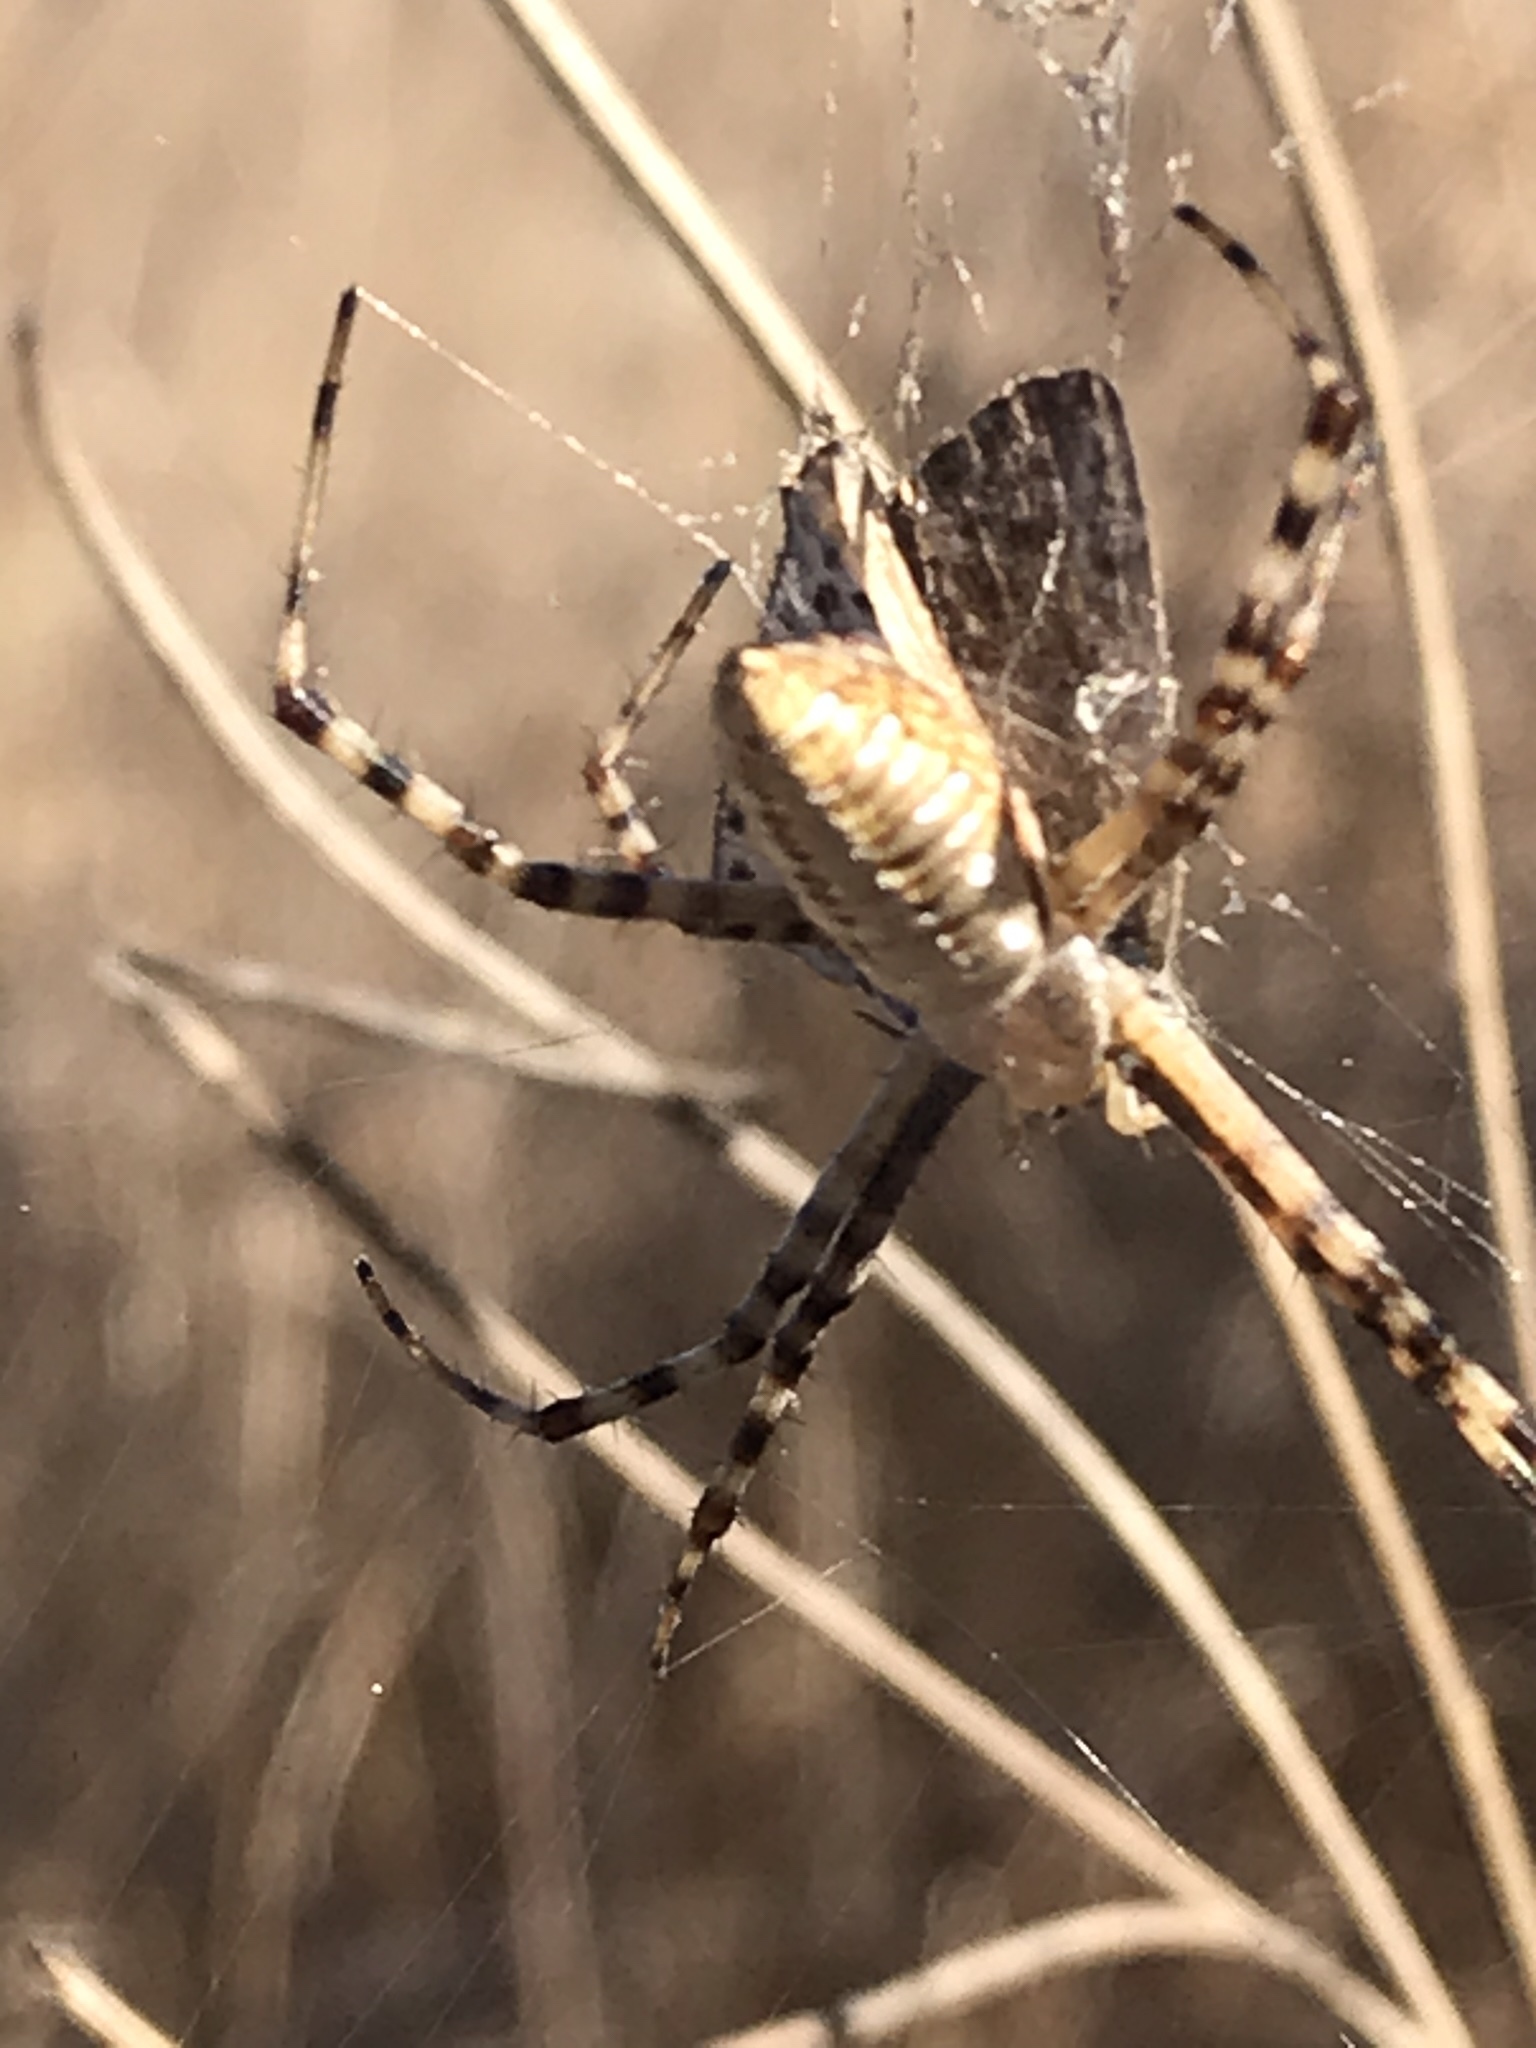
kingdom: Animalia
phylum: Arthropoda
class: Arachnida
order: Araneae
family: Araneidae
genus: Argiope
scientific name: Argiope trifasciata
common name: Banded garden spider
